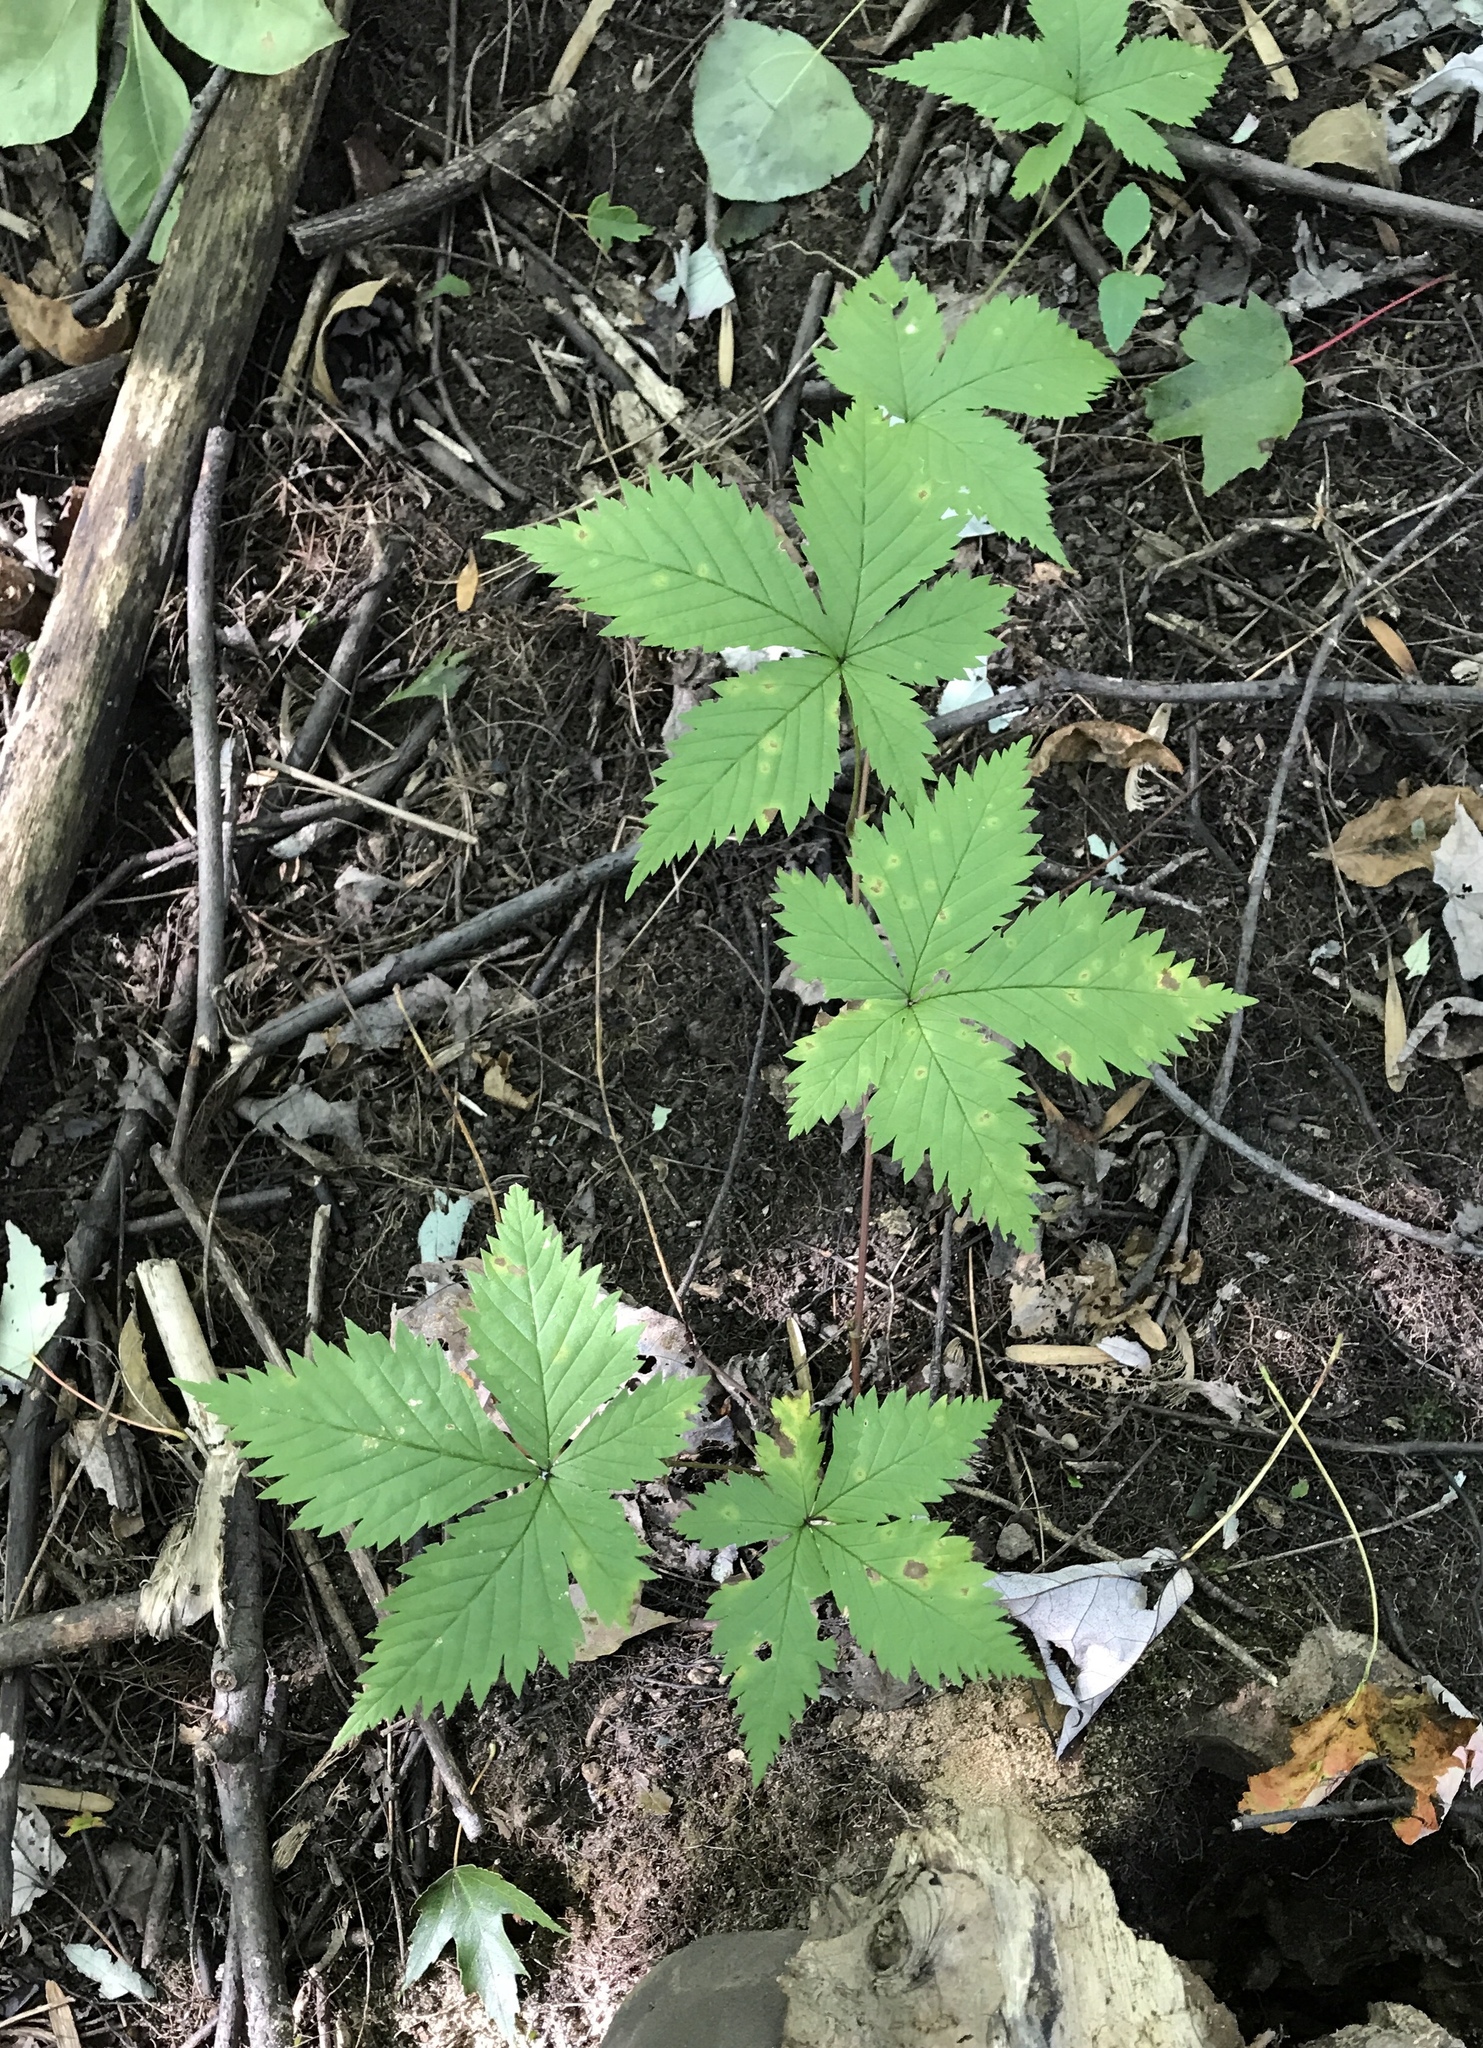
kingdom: Plantae
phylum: Tracheophyta
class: Magnoliopsida
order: Rosales
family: Rosaceae
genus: Rubus
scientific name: Rubus pubescens
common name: Dwarf raspberry
